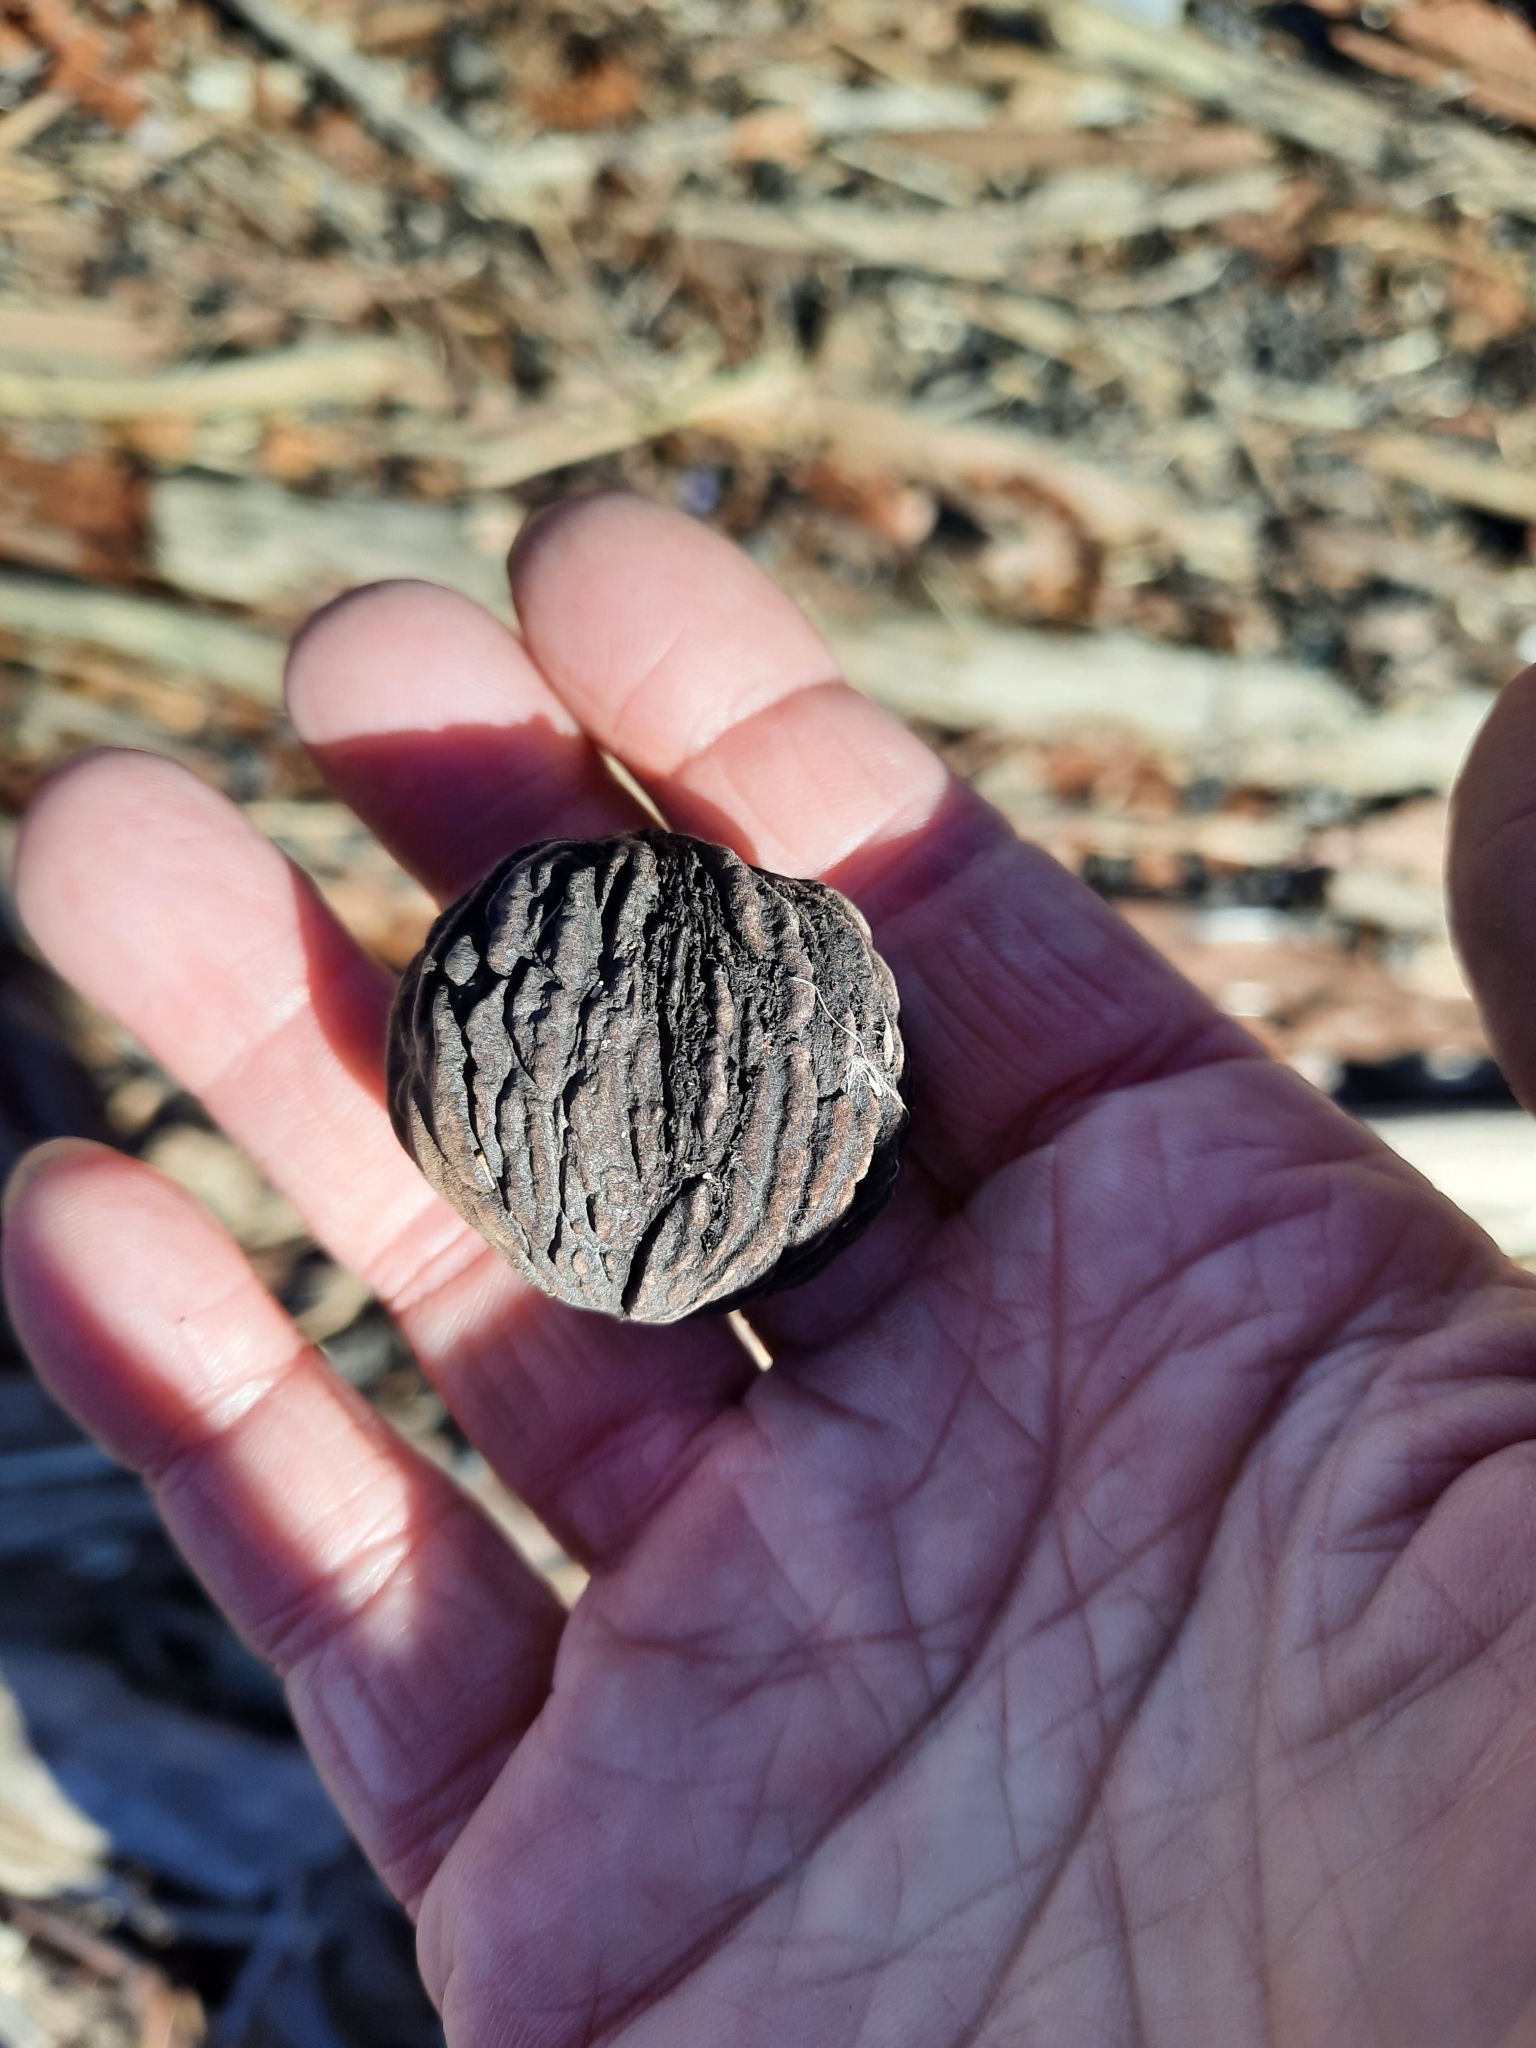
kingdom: Plantae
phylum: Tracheophyta
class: Magnoliopsida
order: Fagales
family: Juglandaceae
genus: Juglans
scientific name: Juglans nigra
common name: Black walnut
